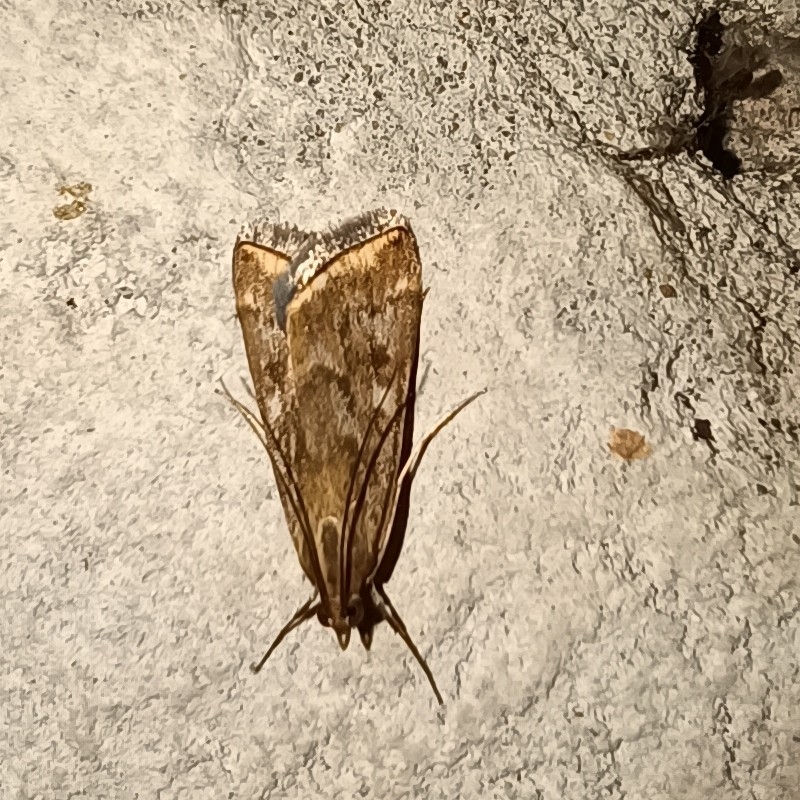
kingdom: Animalia
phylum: Arthropoda
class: Insecta
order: Lepidoptera
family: Crambidae
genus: Loxostege
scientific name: Loxostege sticticalis
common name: Crambid moth
